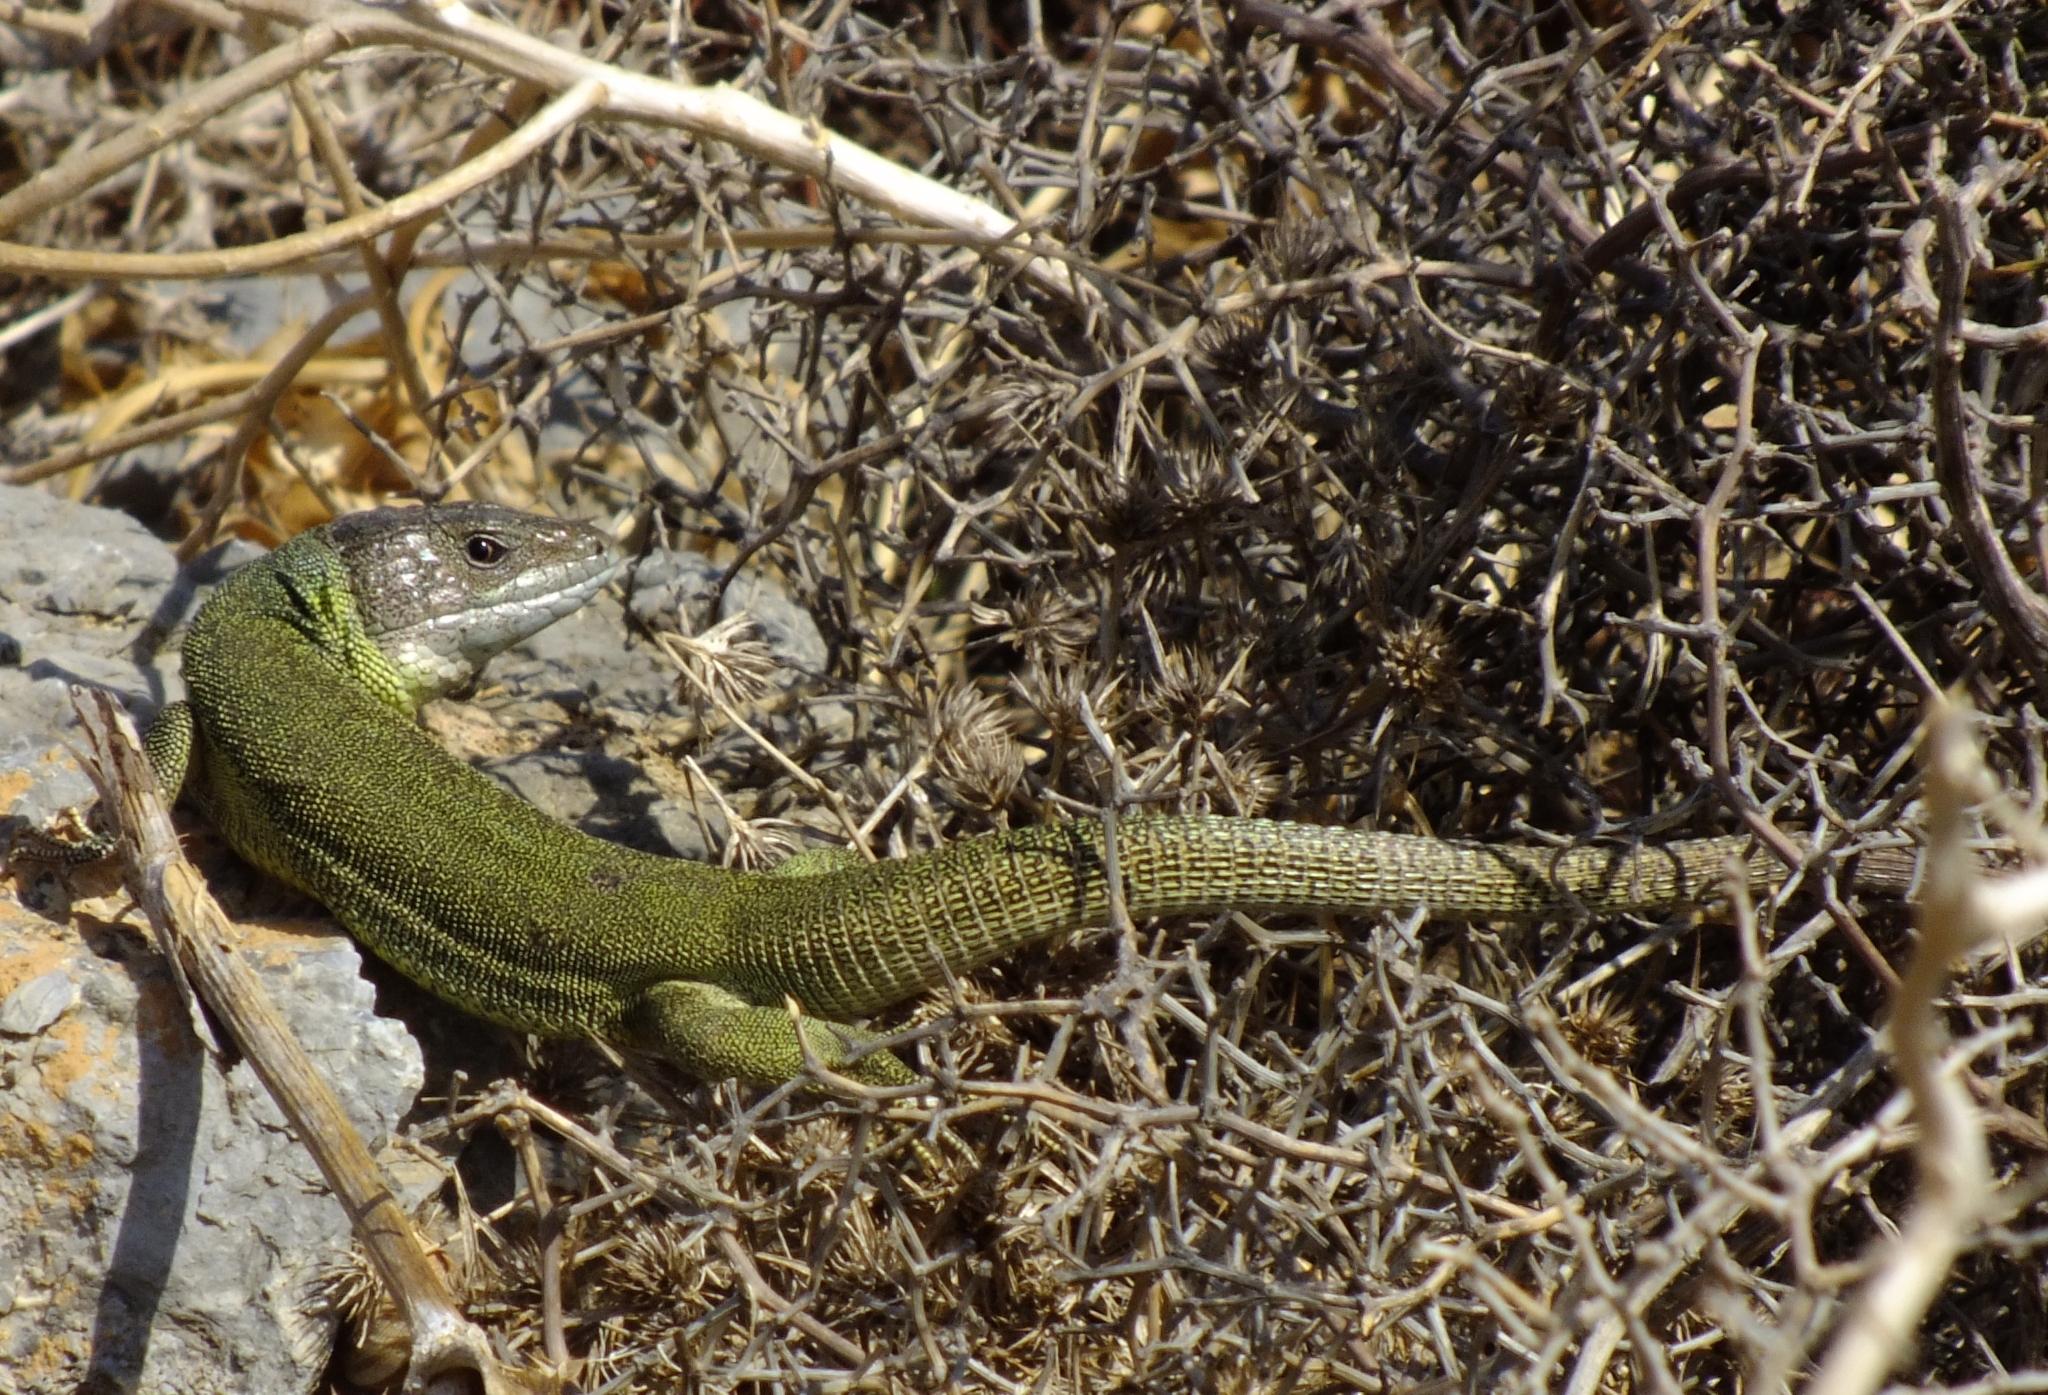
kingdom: Animalia
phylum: Chordata
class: Squamata
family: Lacertidae
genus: Lacerta
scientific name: Lacerta trilineata
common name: Balkan green lizard
